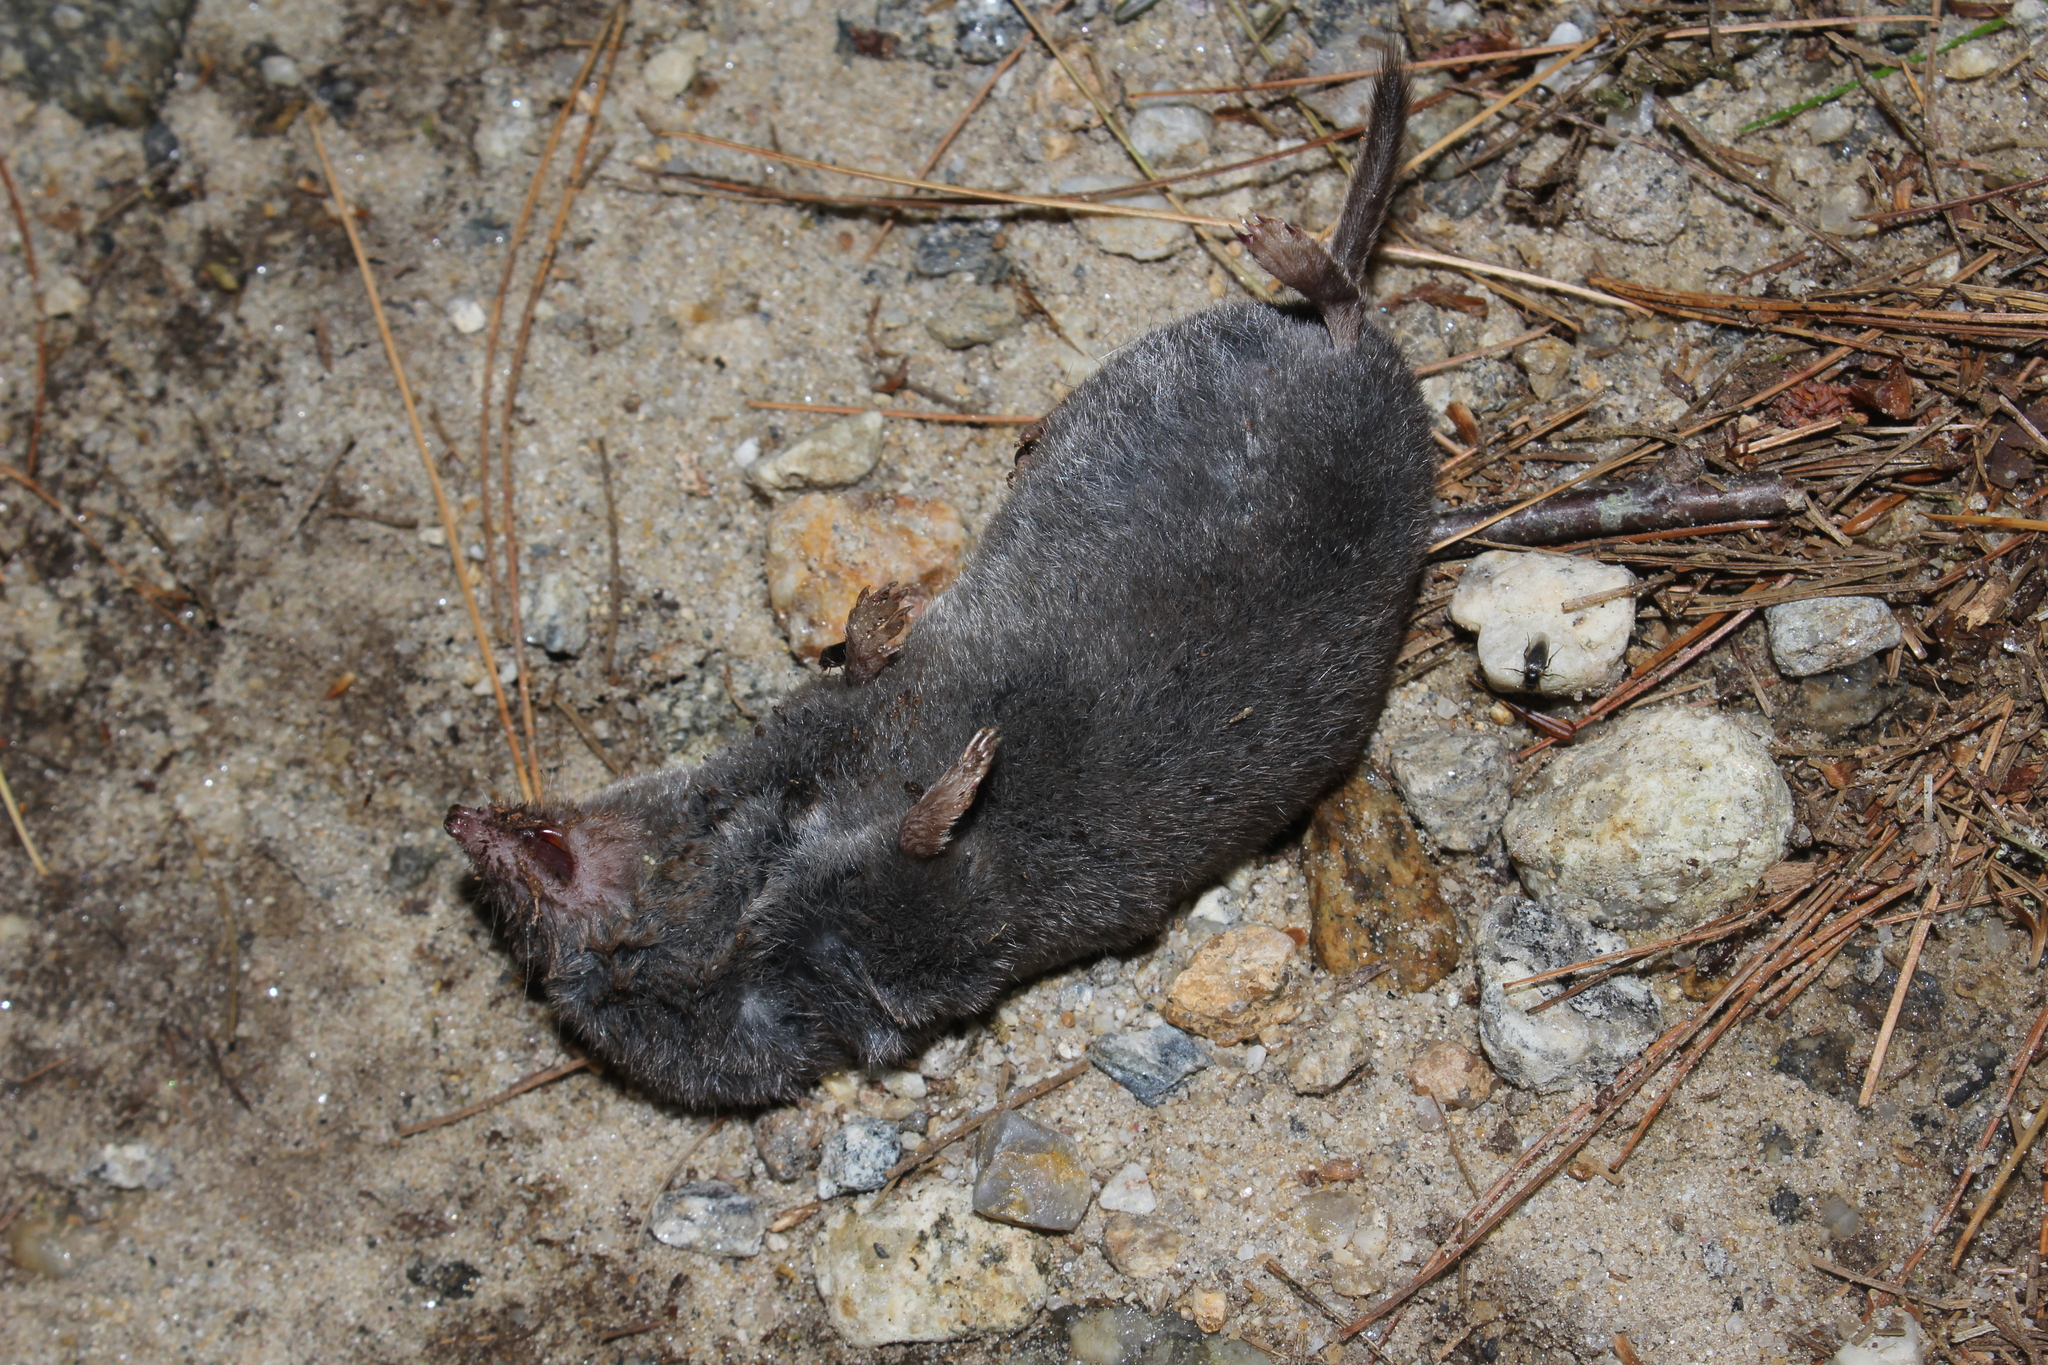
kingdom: Animalia
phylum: Chordata
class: Mammalia
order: Soricomorpha
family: Soricidae
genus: Blarina
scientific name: Blarina brevicauda
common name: Northern short-tailed shrew
